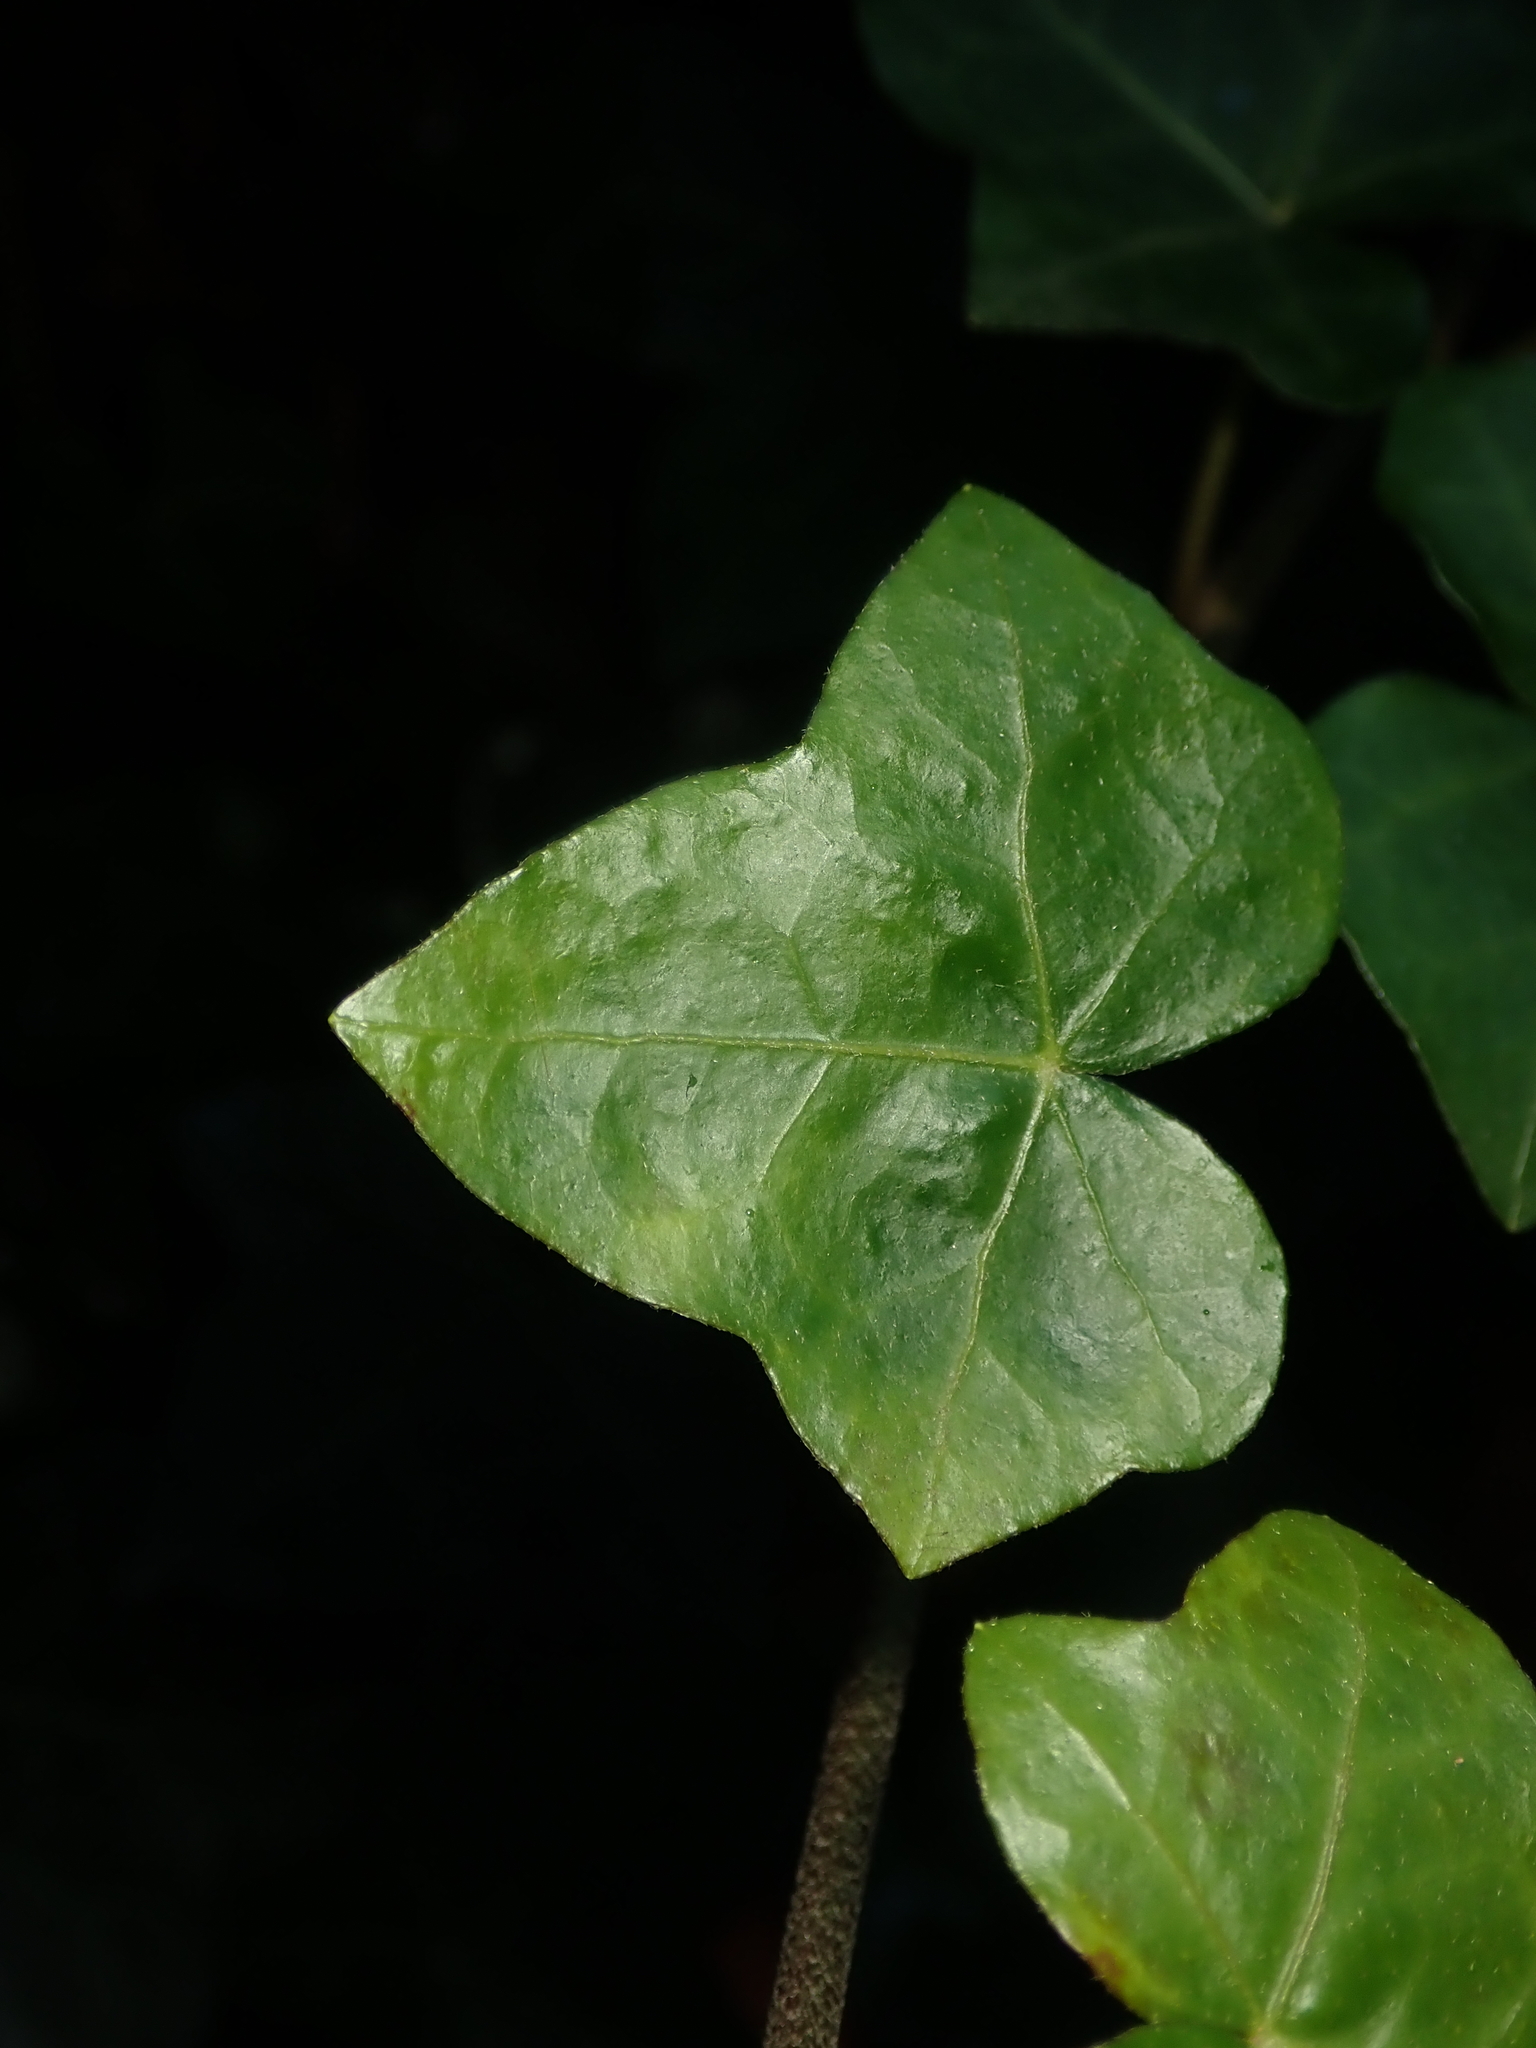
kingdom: Plantae
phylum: Tracheophyta
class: Magnoliopsida
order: Apiales
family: Araliaceae
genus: Hedera
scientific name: Hedera helix
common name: Ivy
